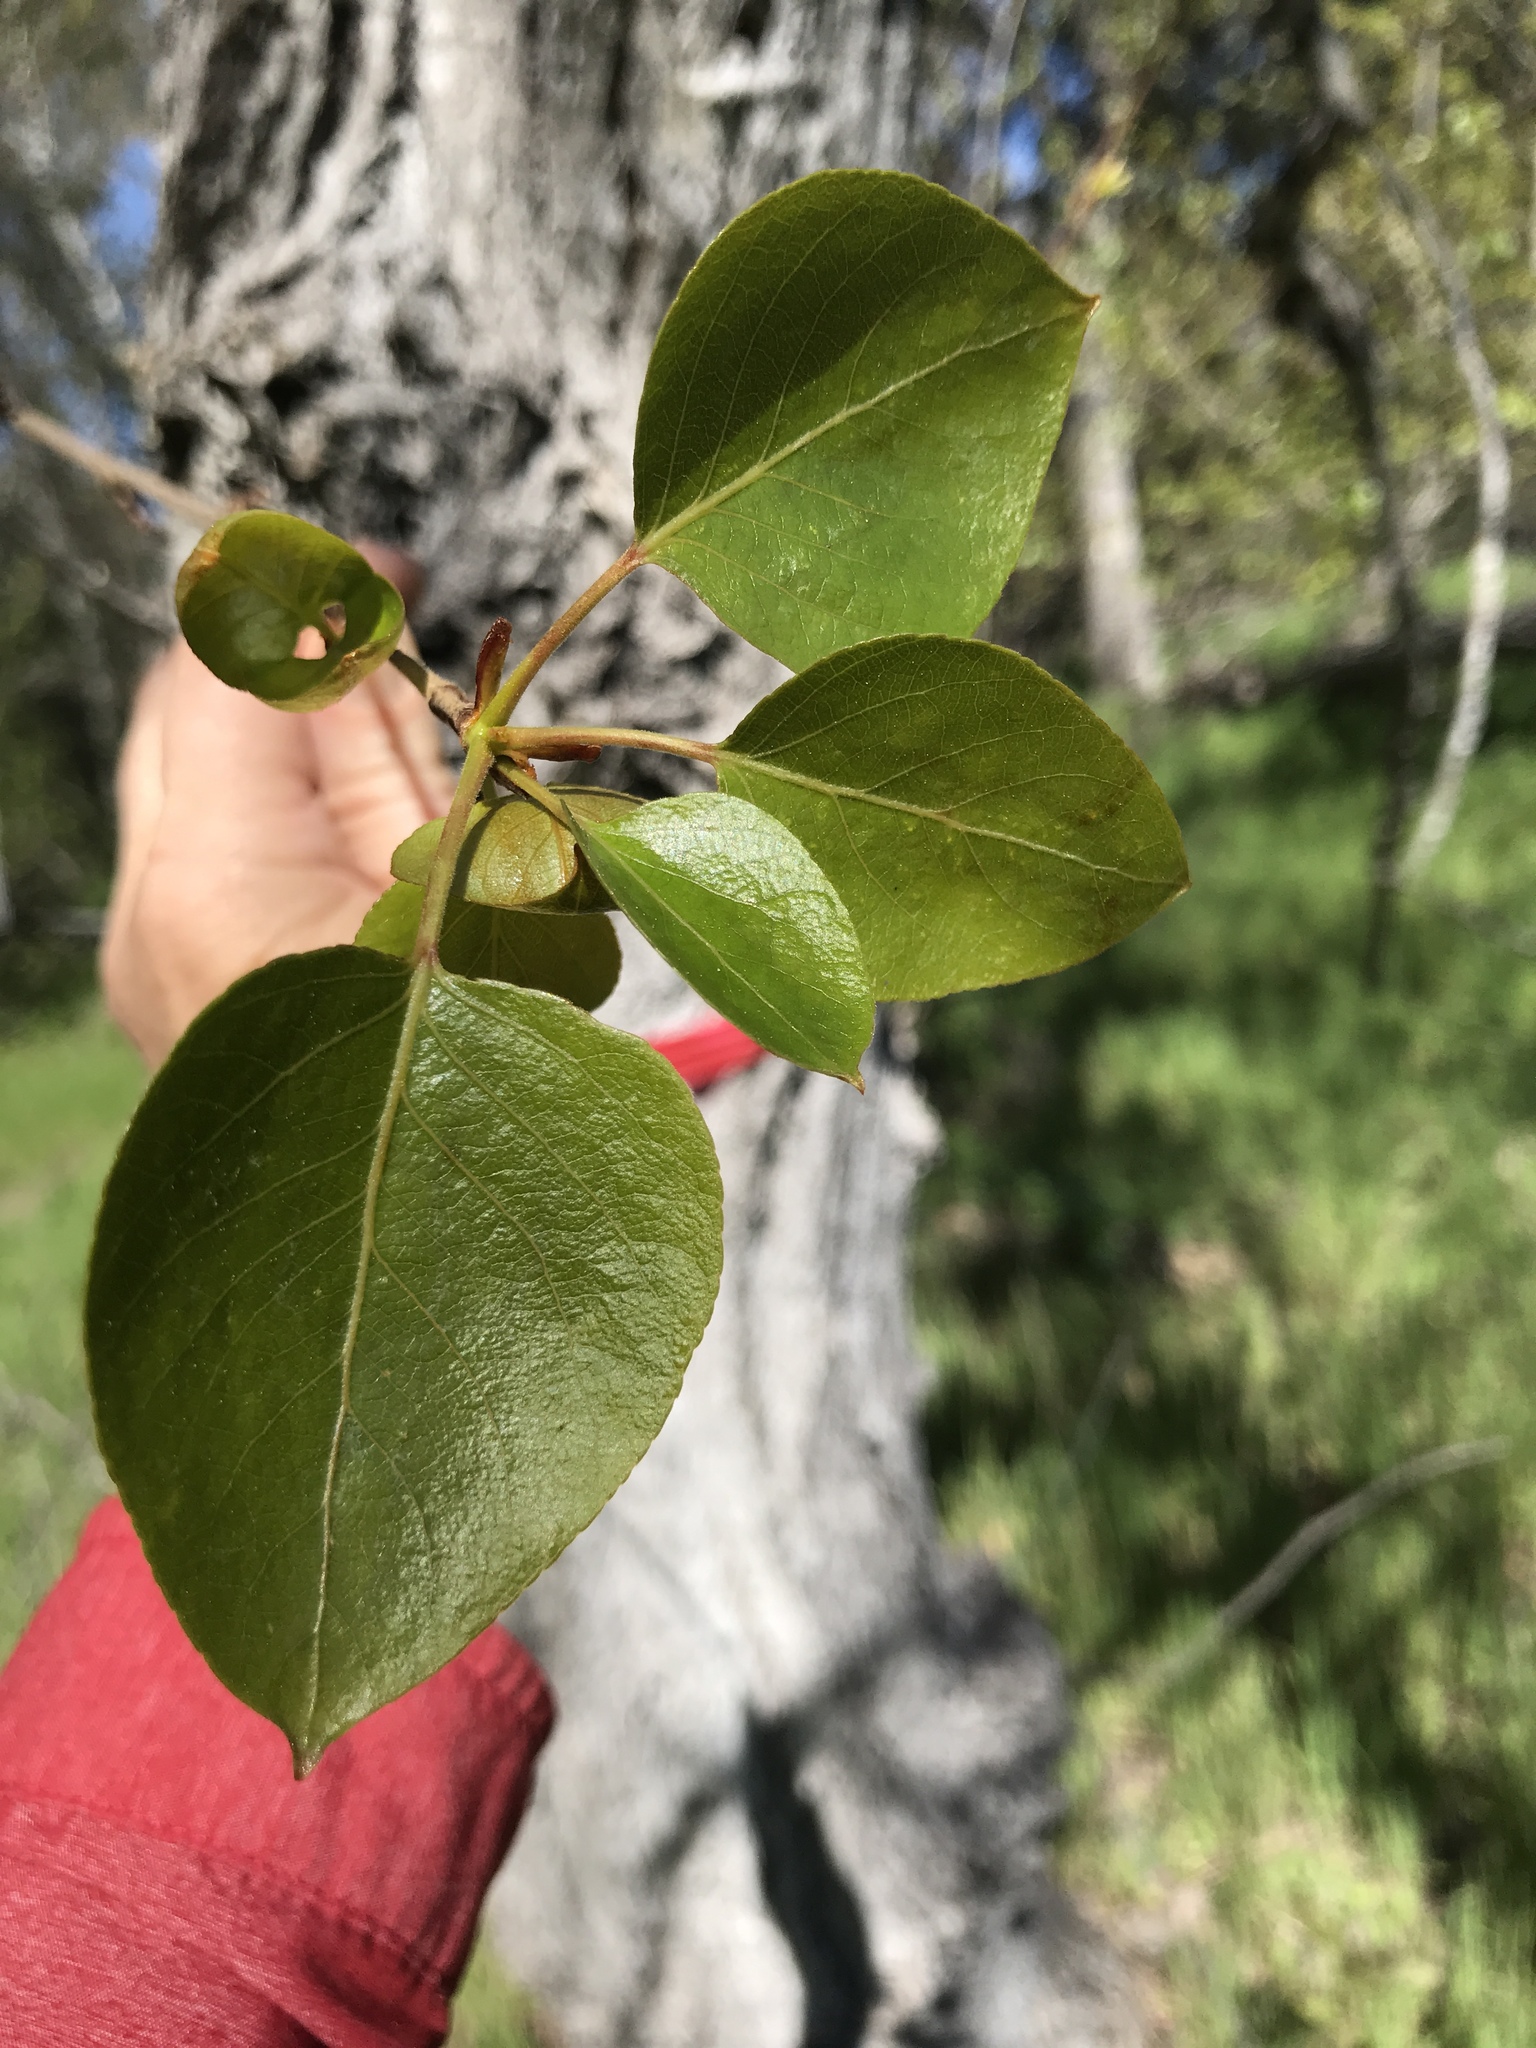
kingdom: Plantae
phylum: Tracheophyta
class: Magnoliopsida
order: Malpighiales
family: Salicaceae
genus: Populus
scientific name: Populus trichocarpa
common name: Black cottonwood
